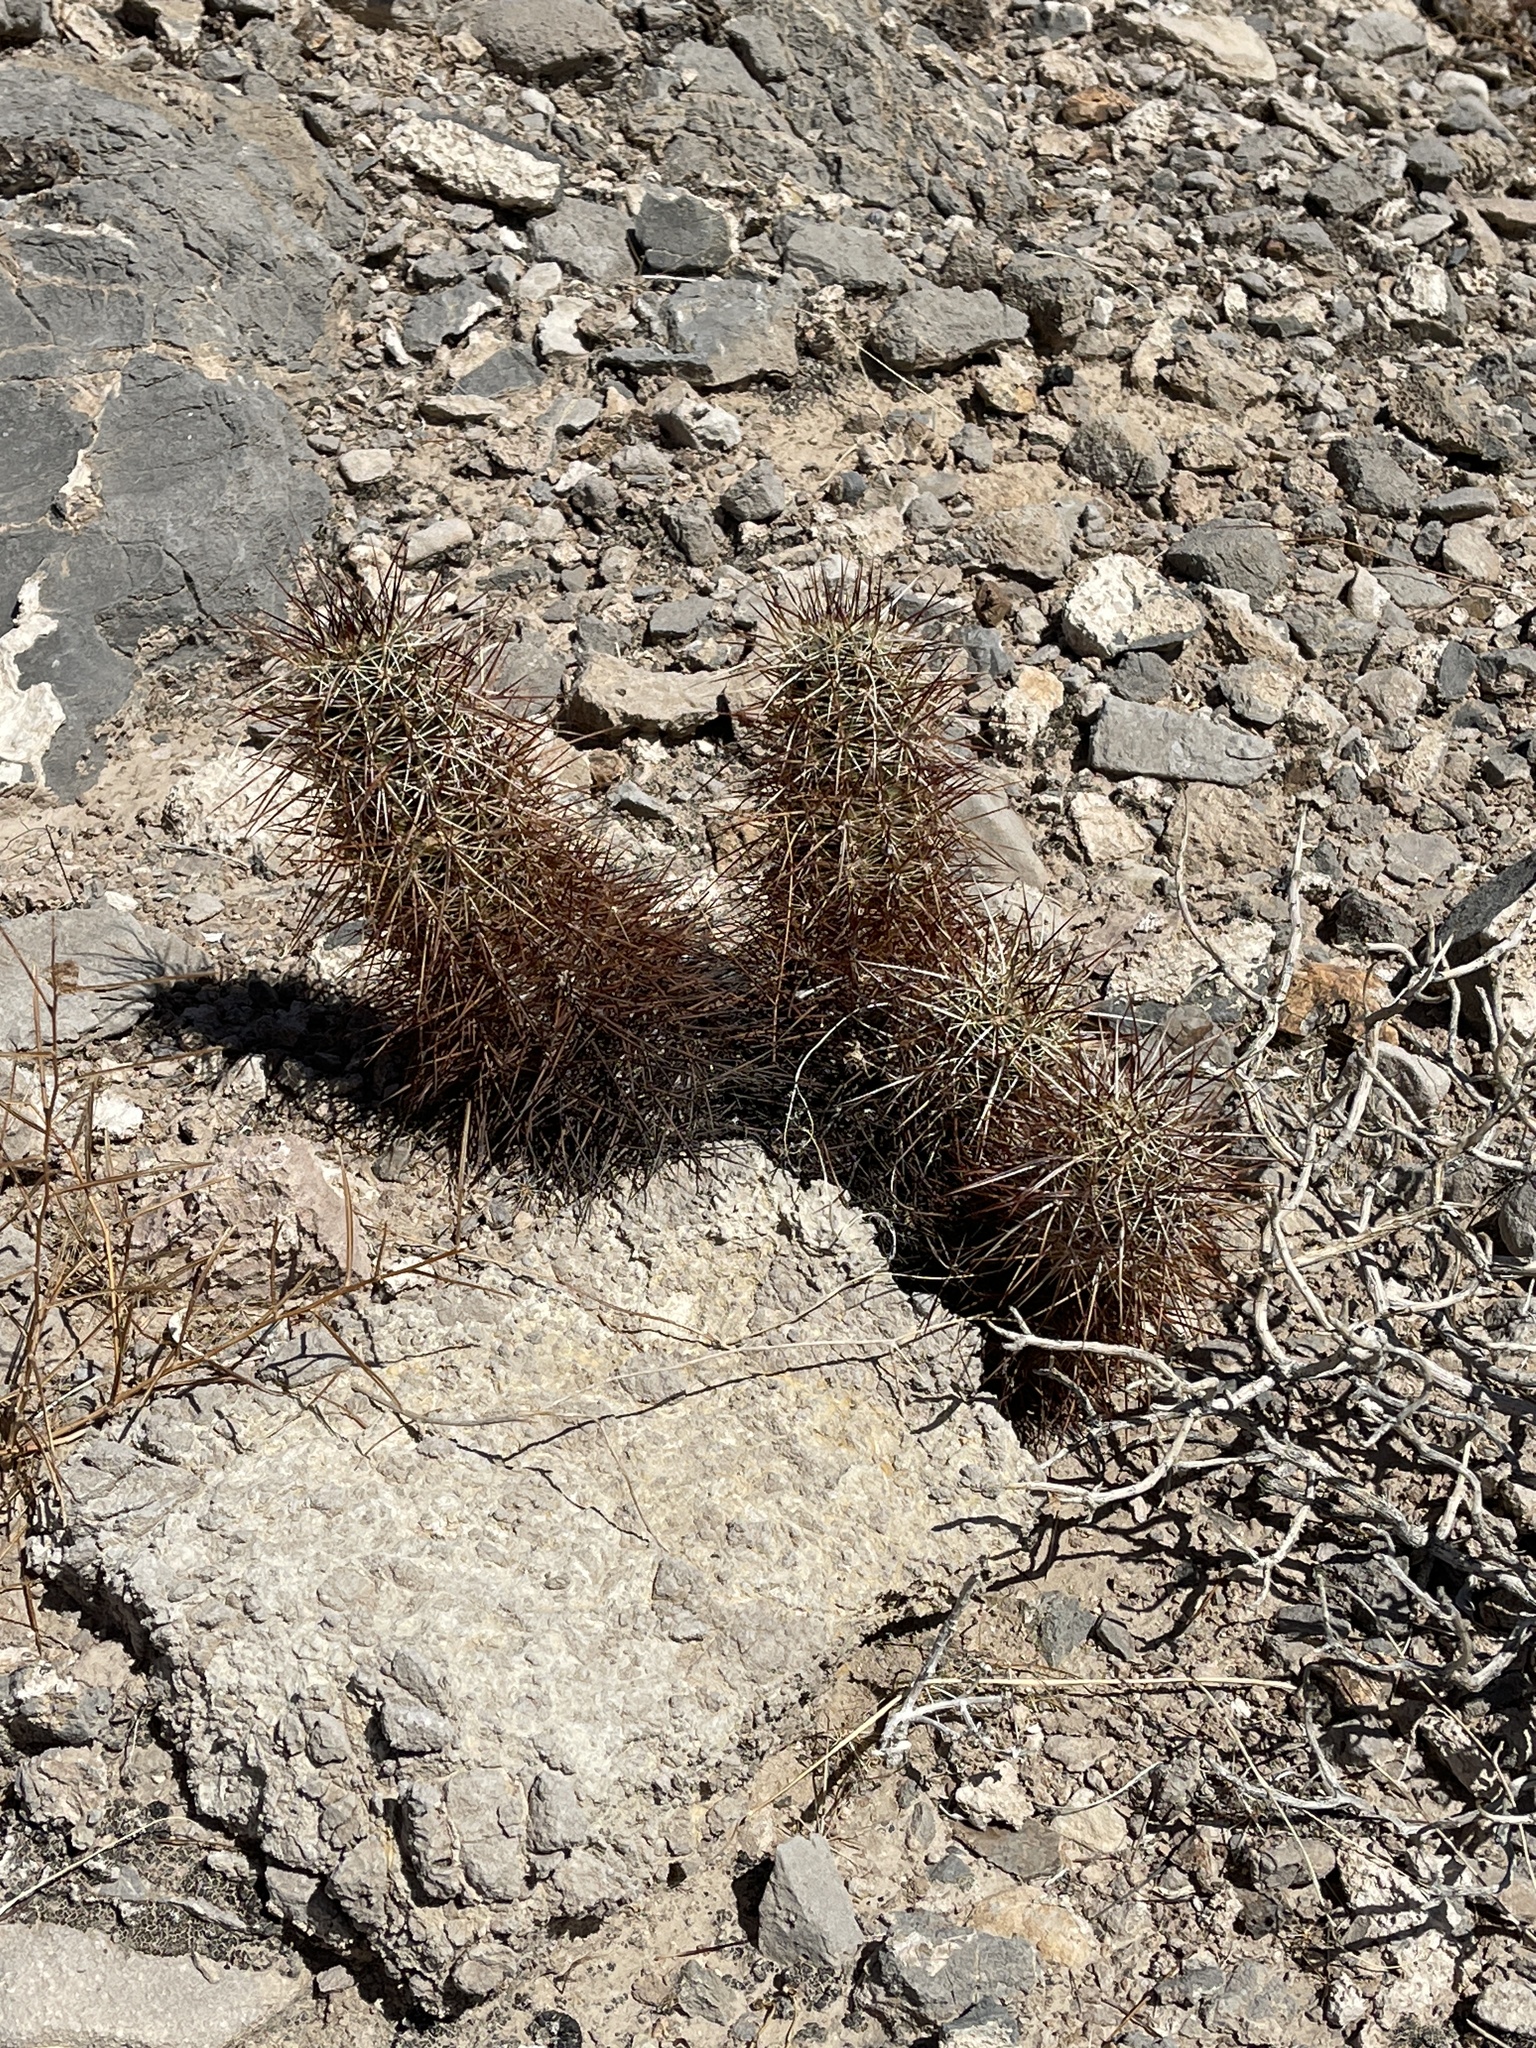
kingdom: Plantae
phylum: Tracheophyta
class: Magnoliopsida
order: Caryophyllales
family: Cactaceae
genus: Echinocereus
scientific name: Echinocereus engelmannii
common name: Engelmann's hedgehog cactus
